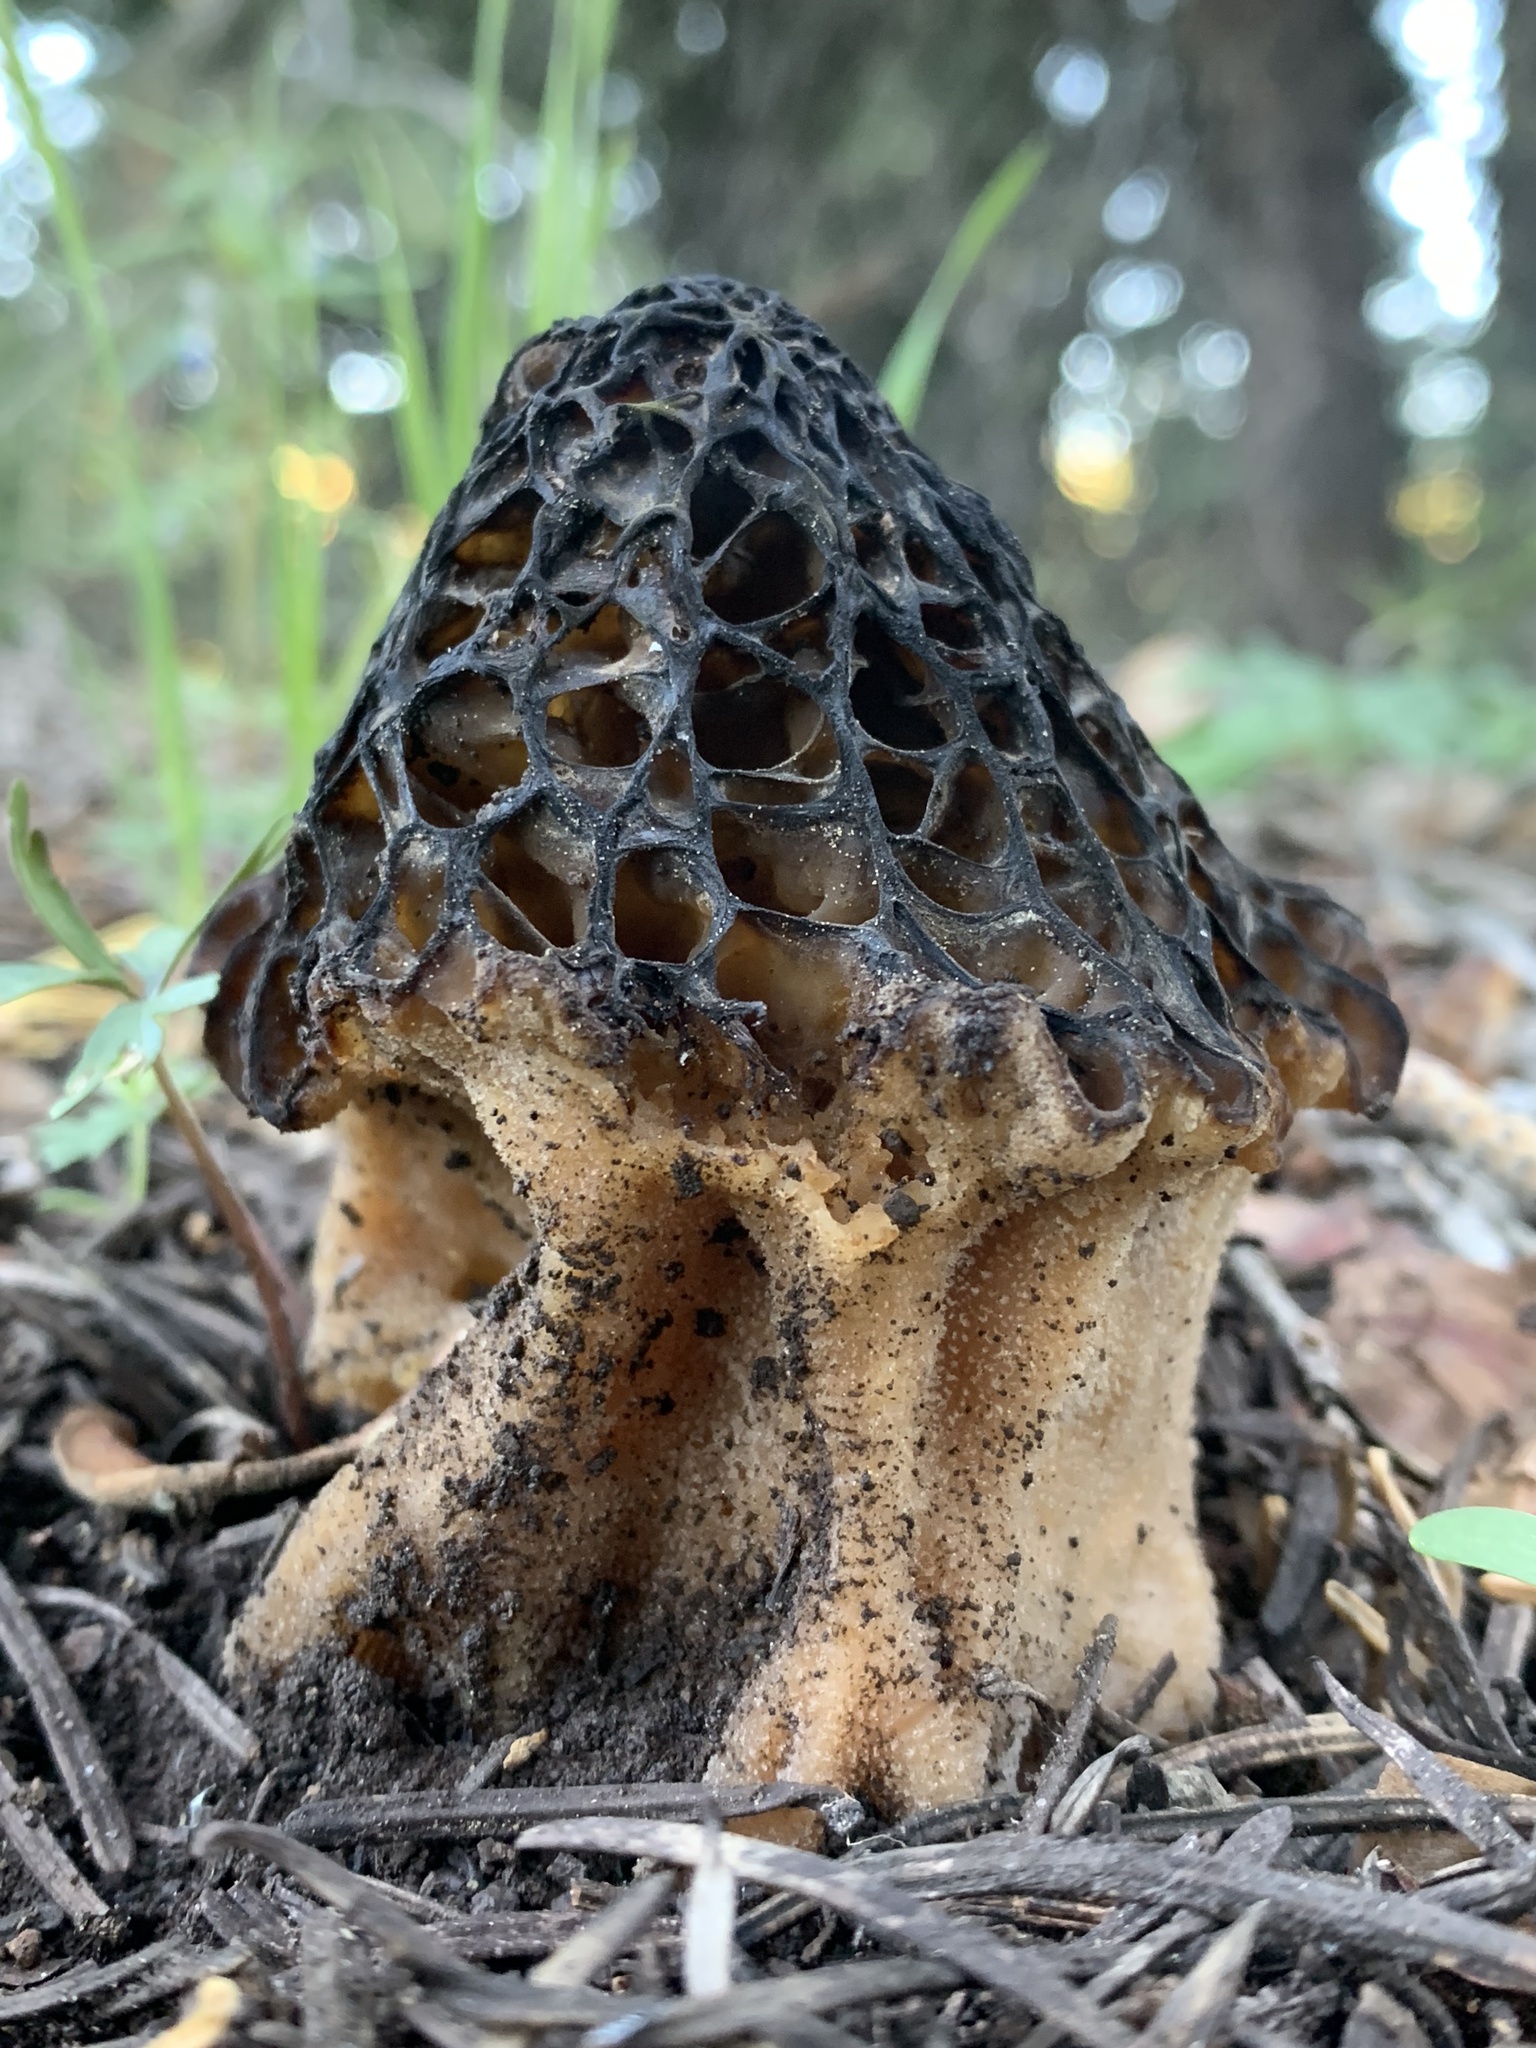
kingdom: Fungi
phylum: Ascomycota
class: Pezizomycetes
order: Pezizales
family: Morchellaceae
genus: Morchella
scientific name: Morchella snyderi
